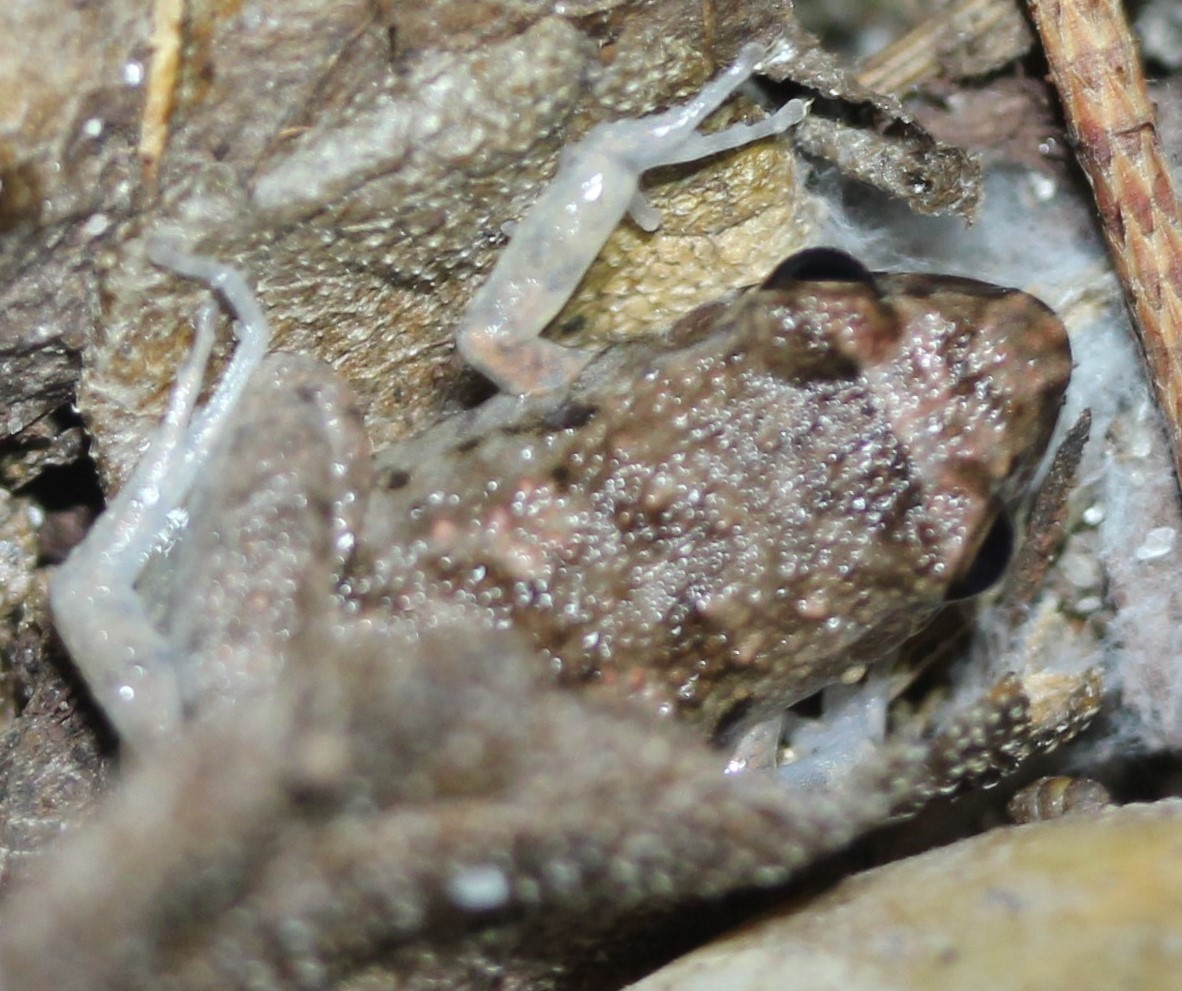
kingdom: Animalia
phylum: Chordata
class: Amphibia
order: Anura
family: Eleutherodactylidae
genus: Eleutherodactylus
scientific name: Eleutherodactylus planirostris
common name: Greenhouse frog
